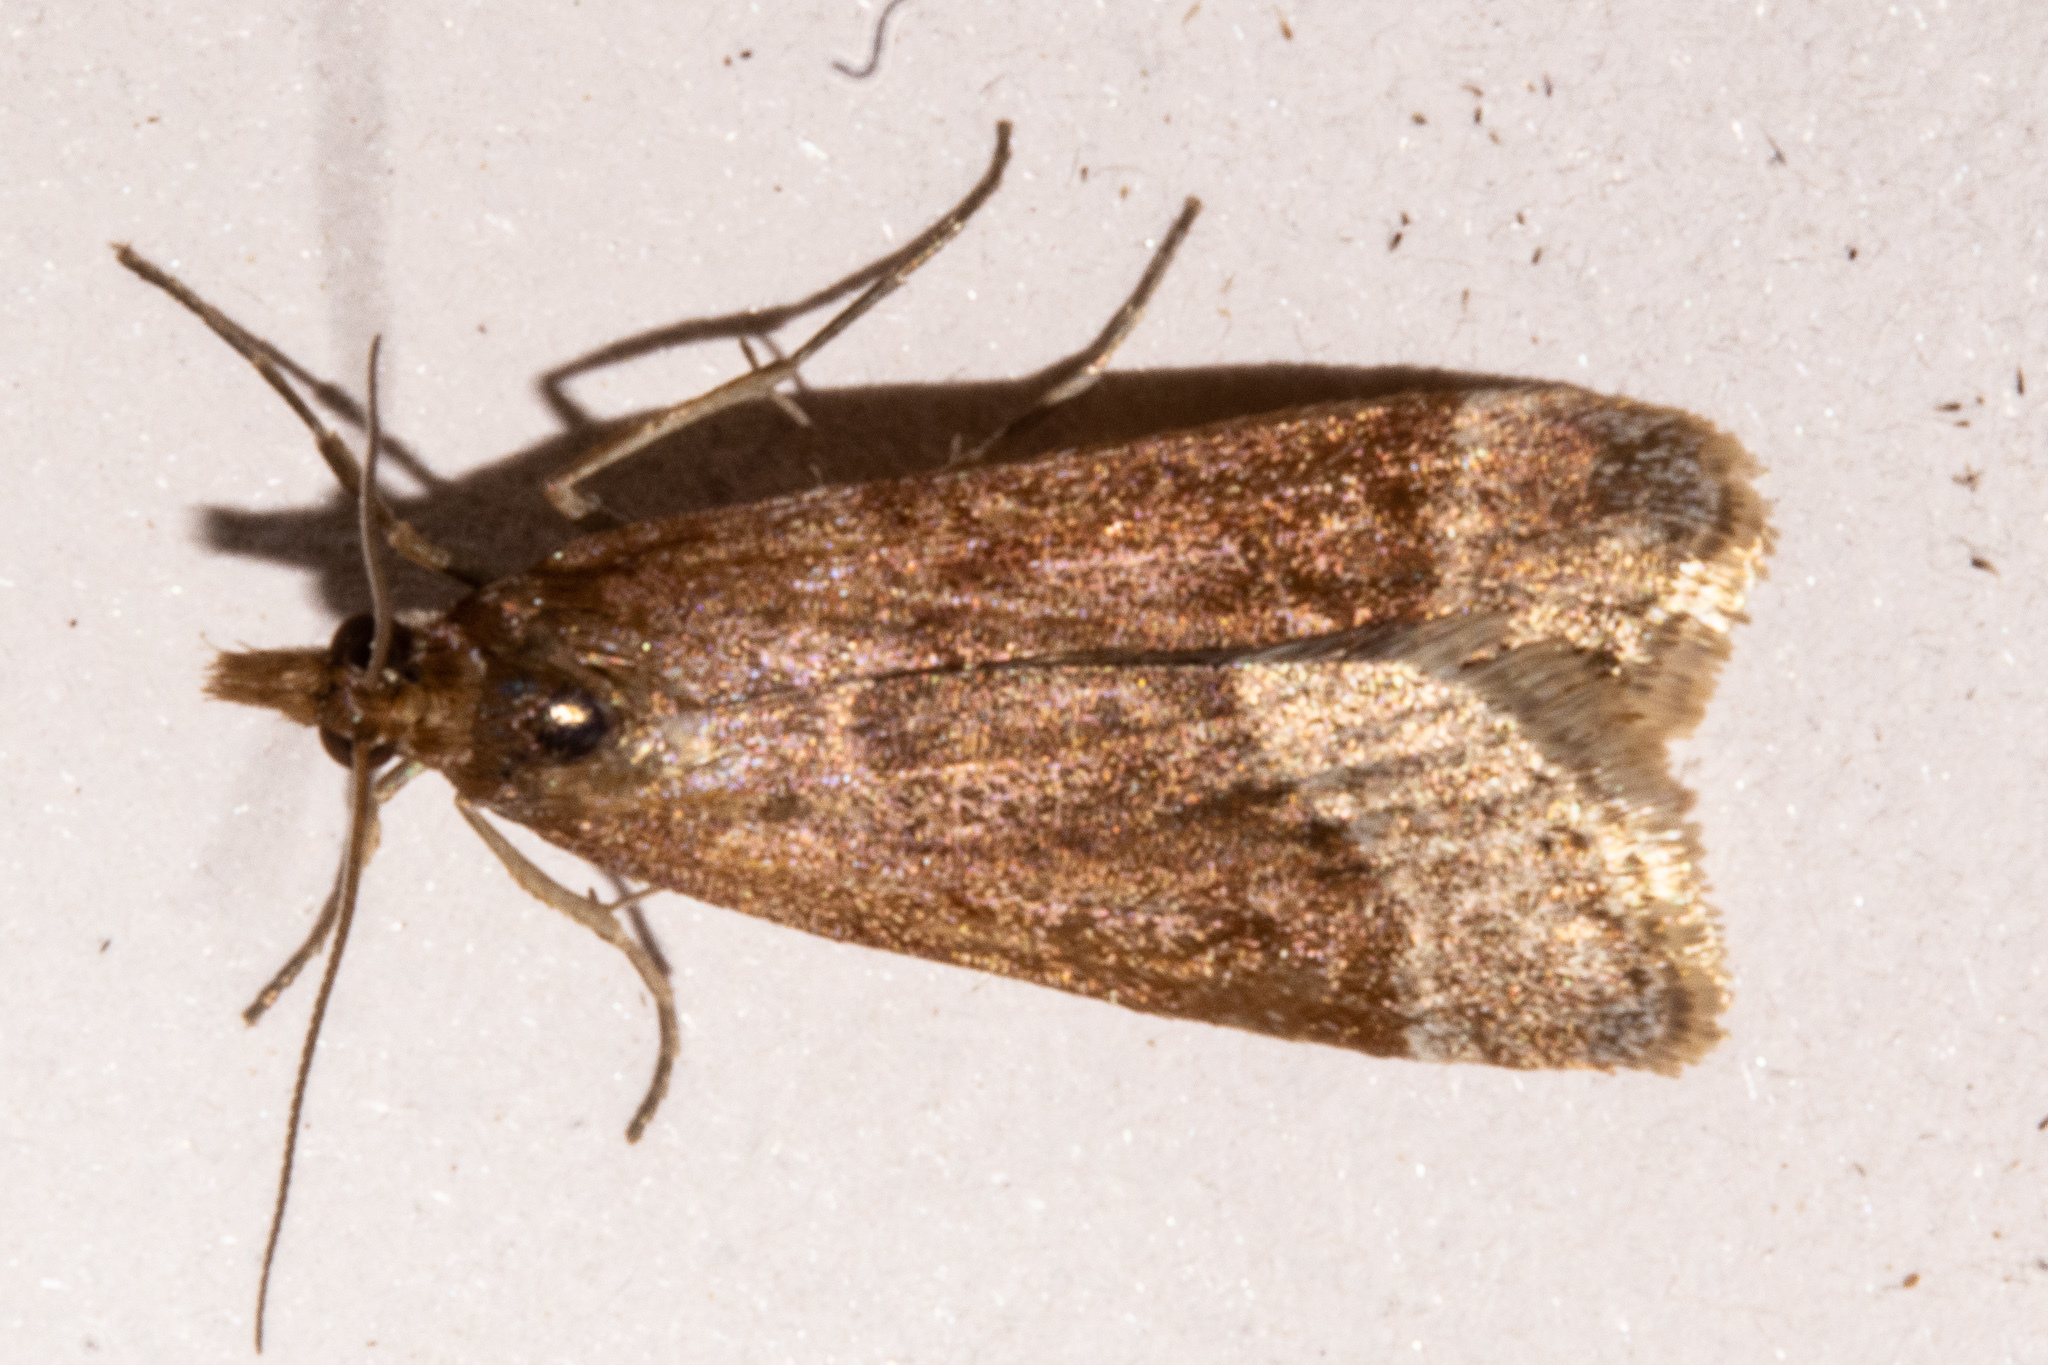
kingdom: Animalia
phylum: Arthropoda
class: Insecta
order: Lepidoptera
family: Crambidae
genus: Eudonia
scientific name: Eudonia feredayi
